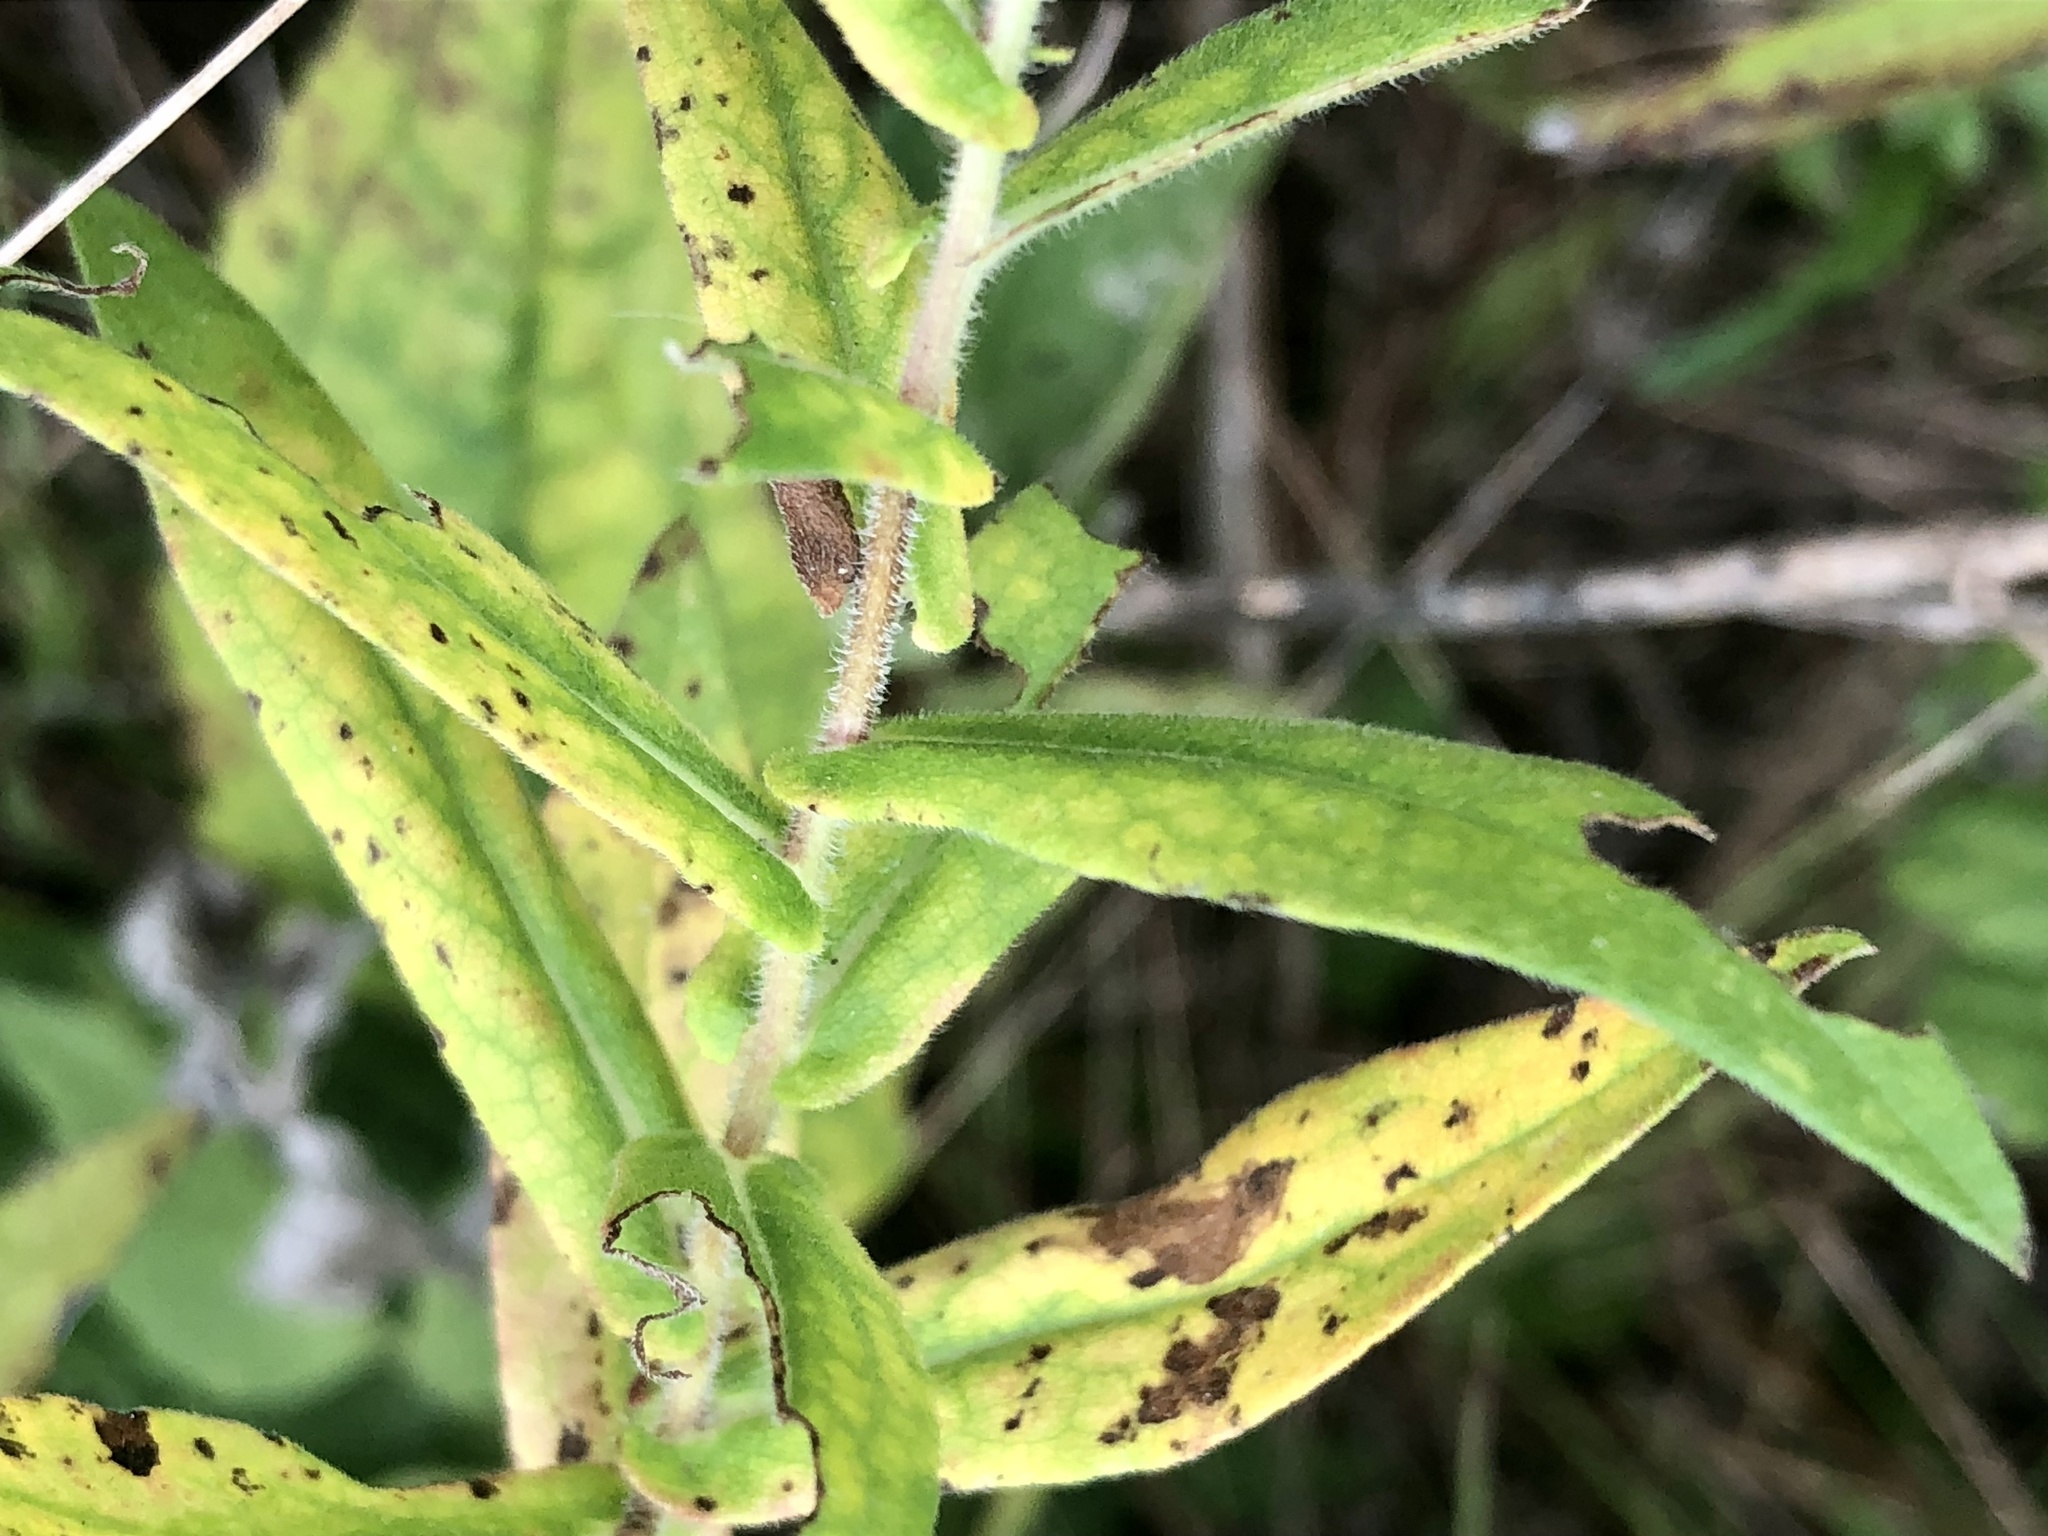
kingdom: Plantae
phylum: Tracheophyta
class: Magnoliopsida
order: Asterales
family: Asteraceae
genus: Symphyotrichum
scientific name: Symphyotrichum novae-angliae
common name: Michaelmas daisy
